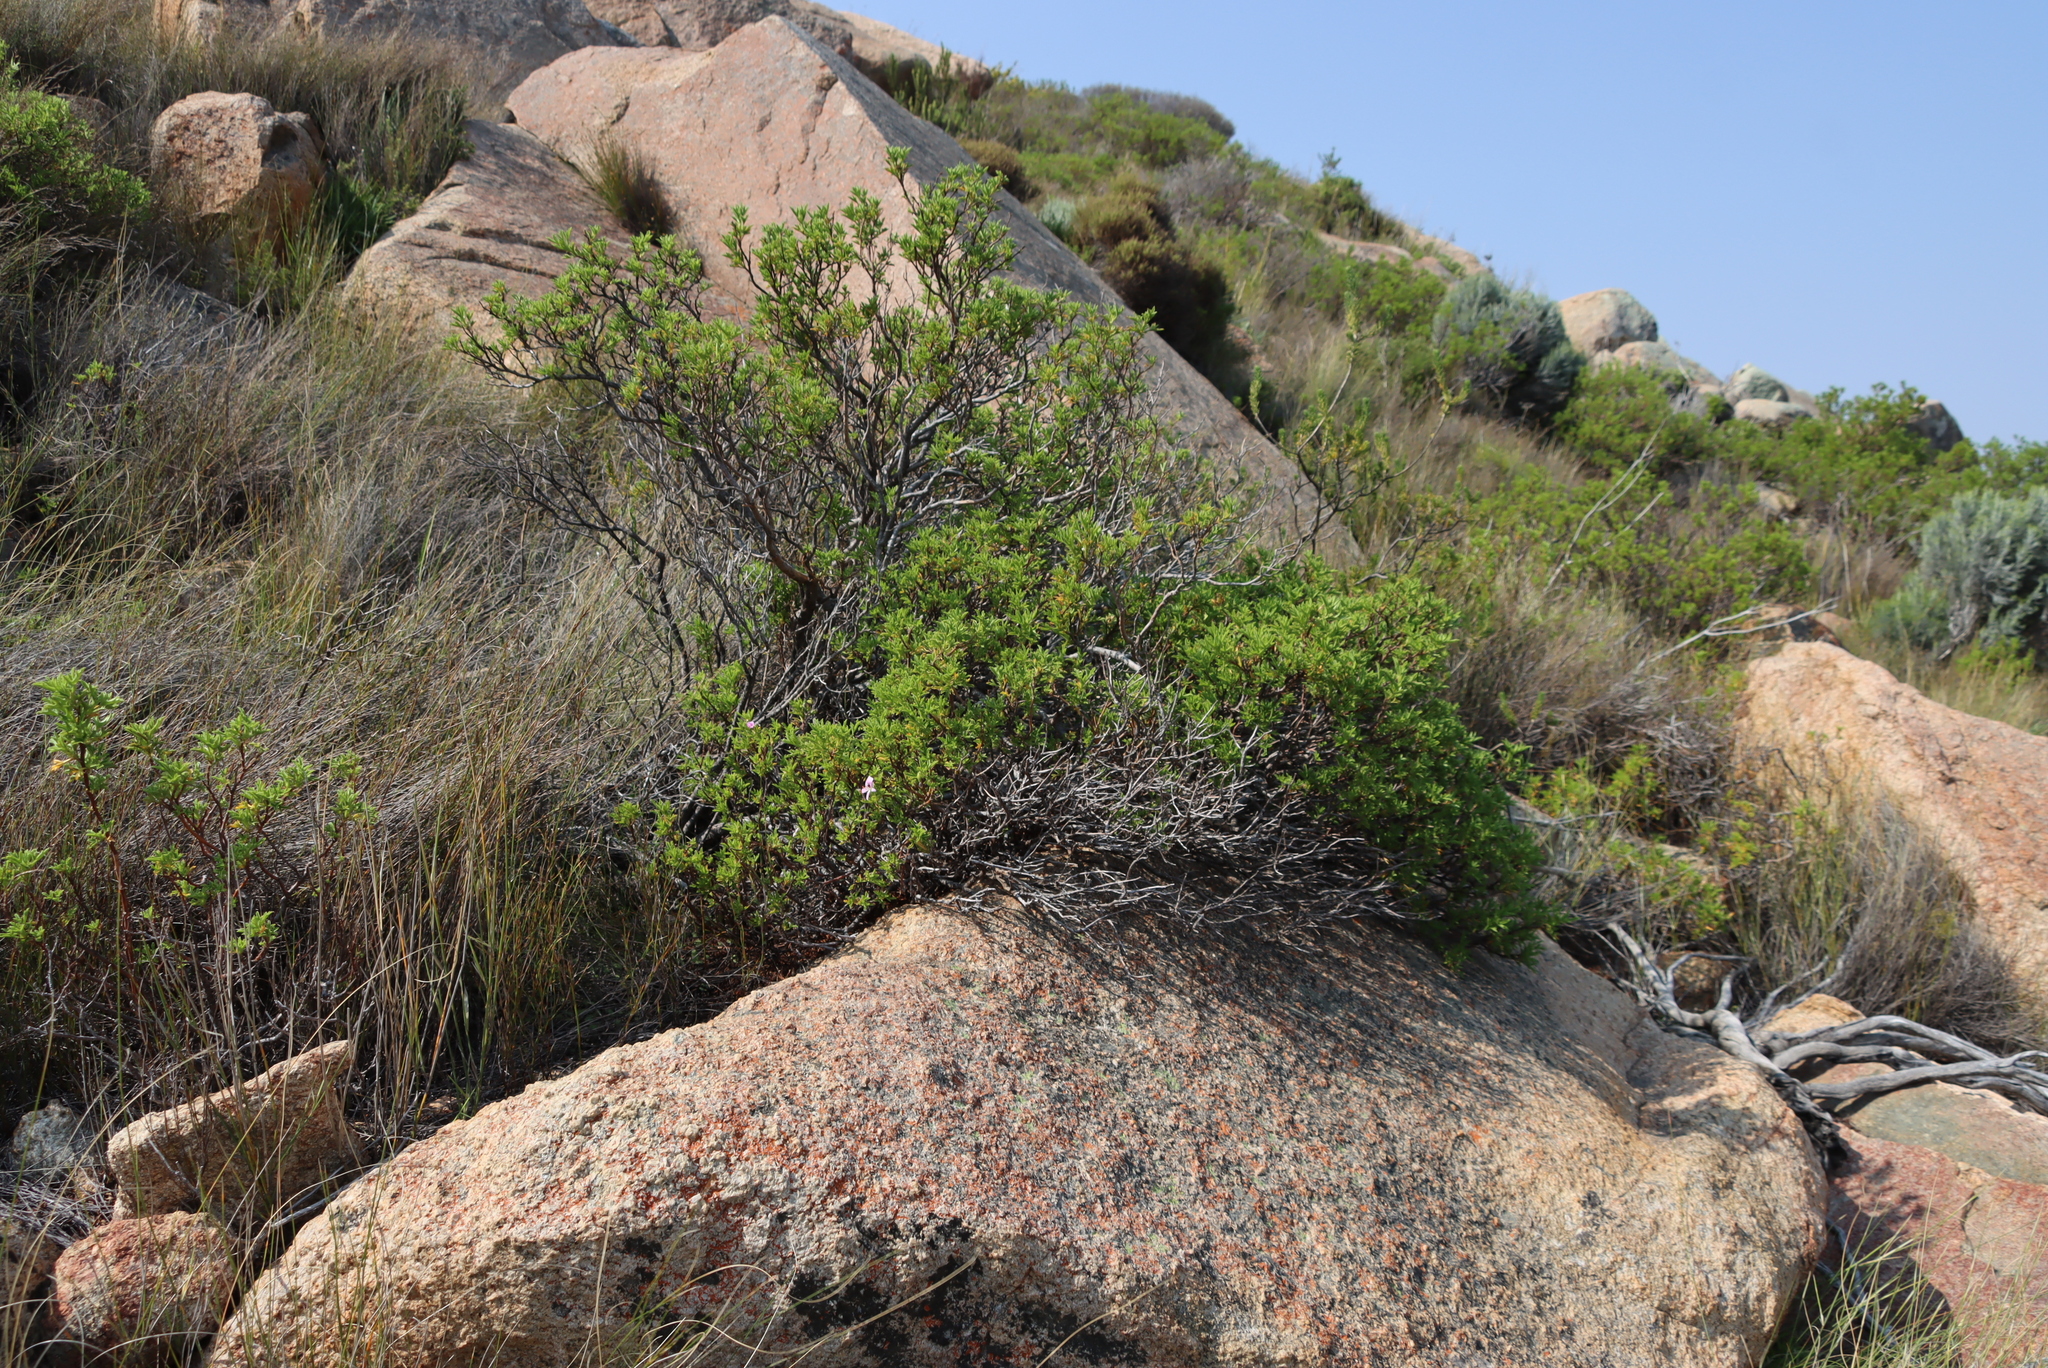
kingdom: Plantae
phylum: Tracheophyta
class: Magnoliopsida
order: Geraniales
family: Geraniaceae
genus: Pelargonium
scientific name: Pelargonium scabrum
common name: Apricot geranium
